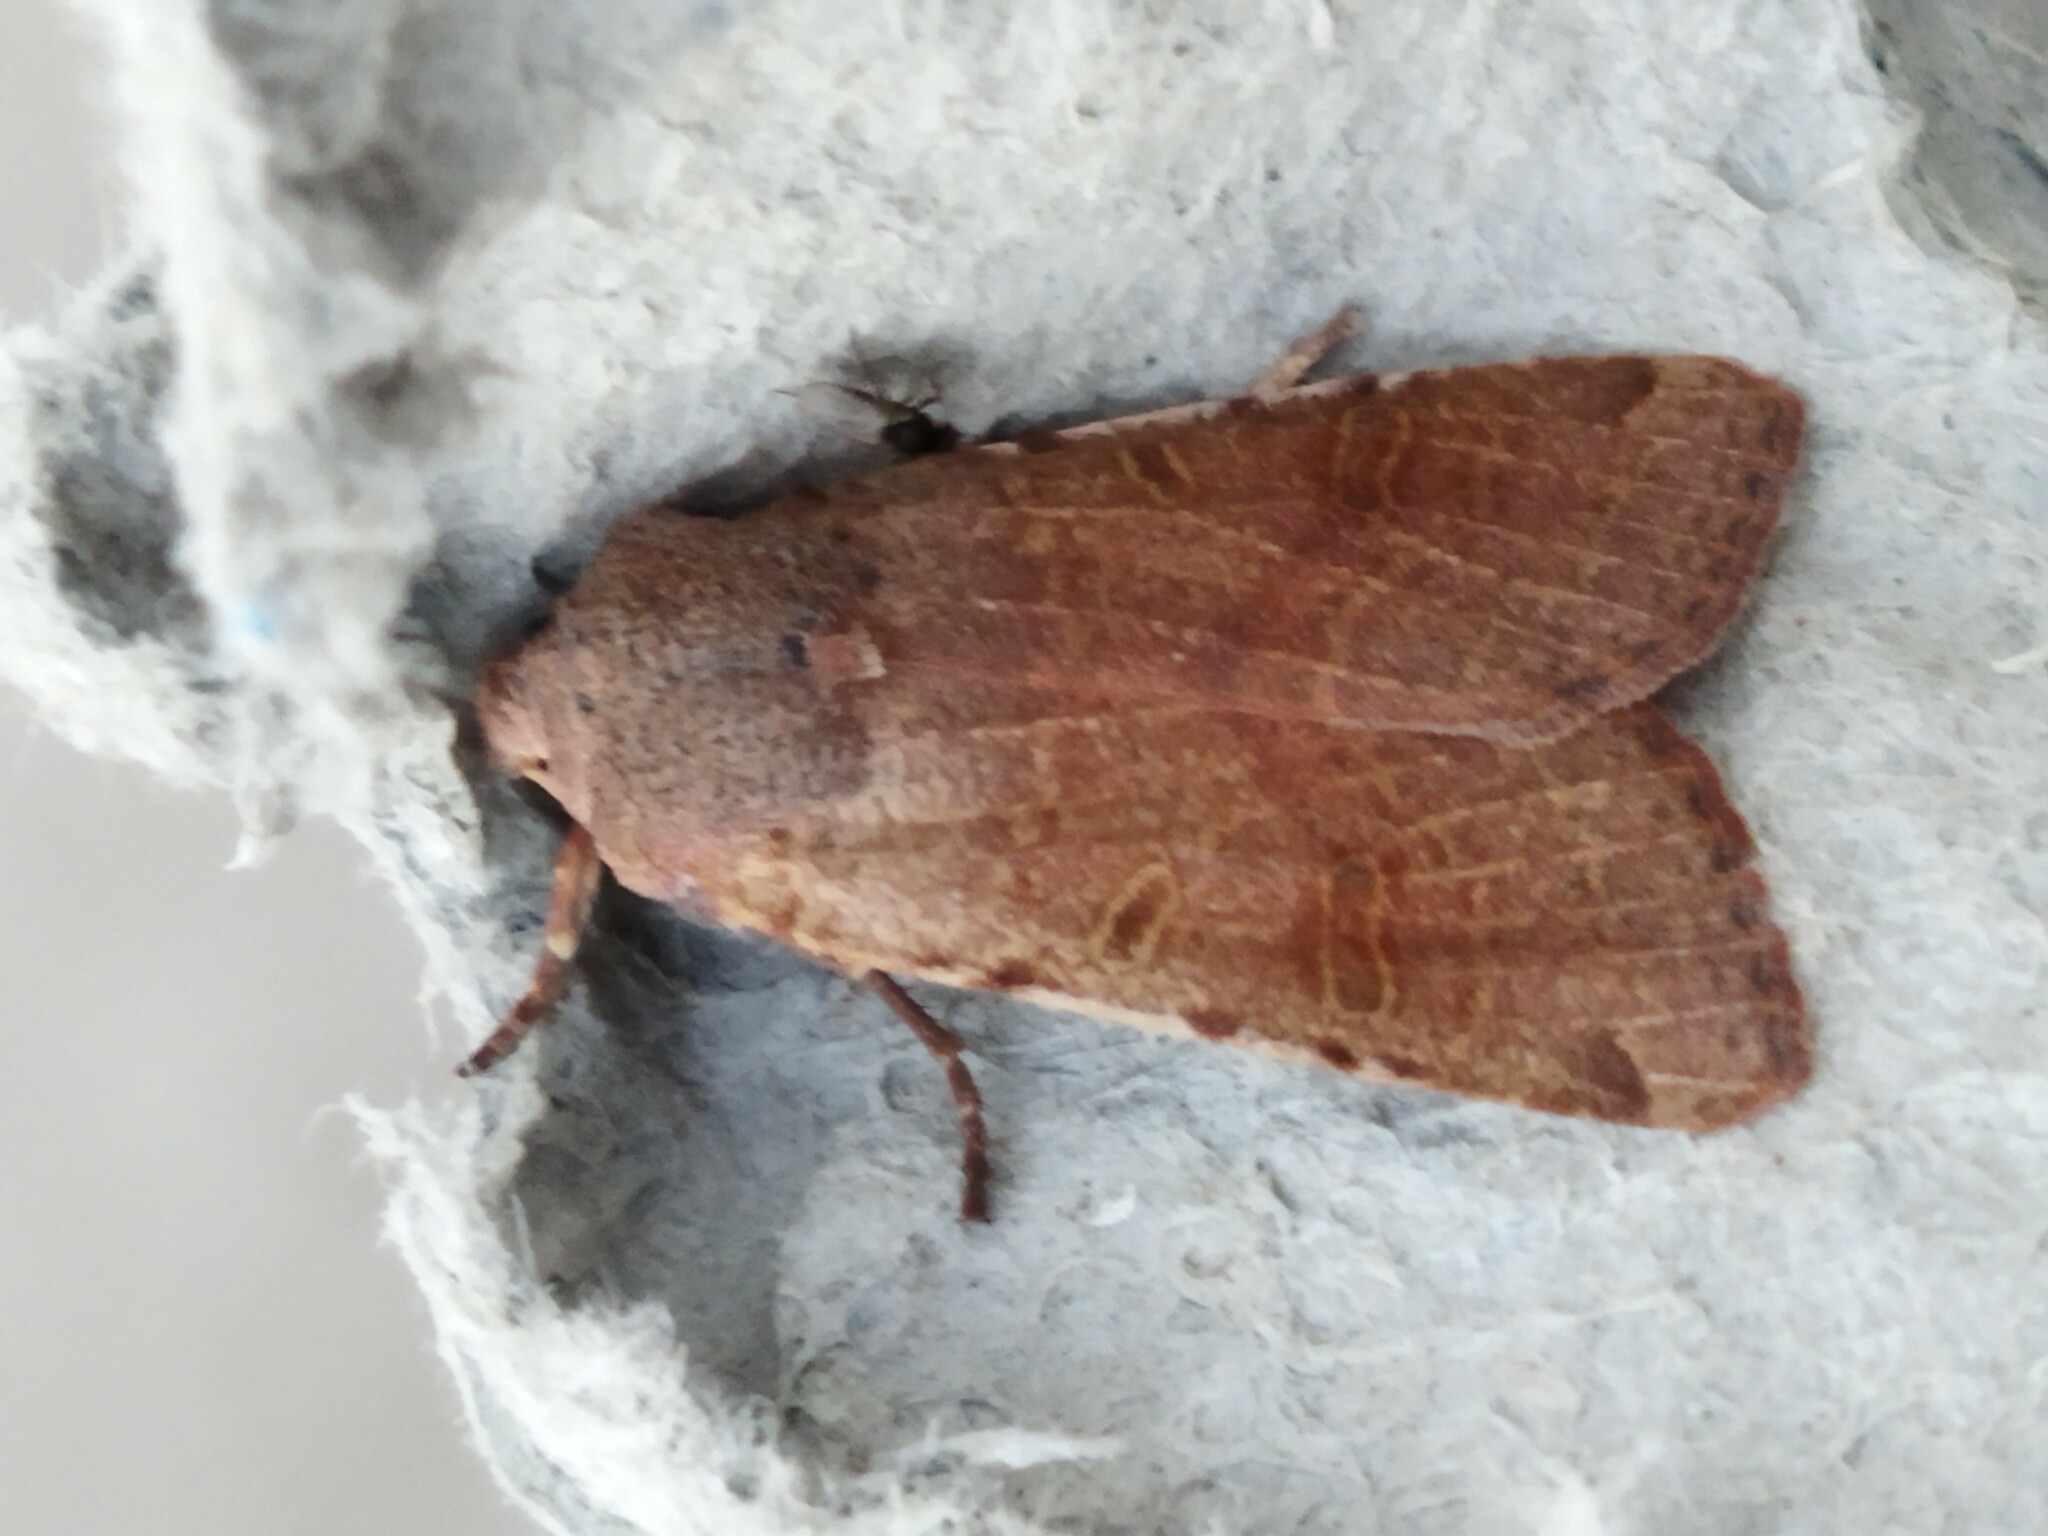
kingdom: Animalia
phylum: Arthropoda
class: Insecta
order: Lepidoptera
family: Noctuidae
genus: Agrochola
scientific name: Agrochola lychnidis
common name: Beaded chestnut
